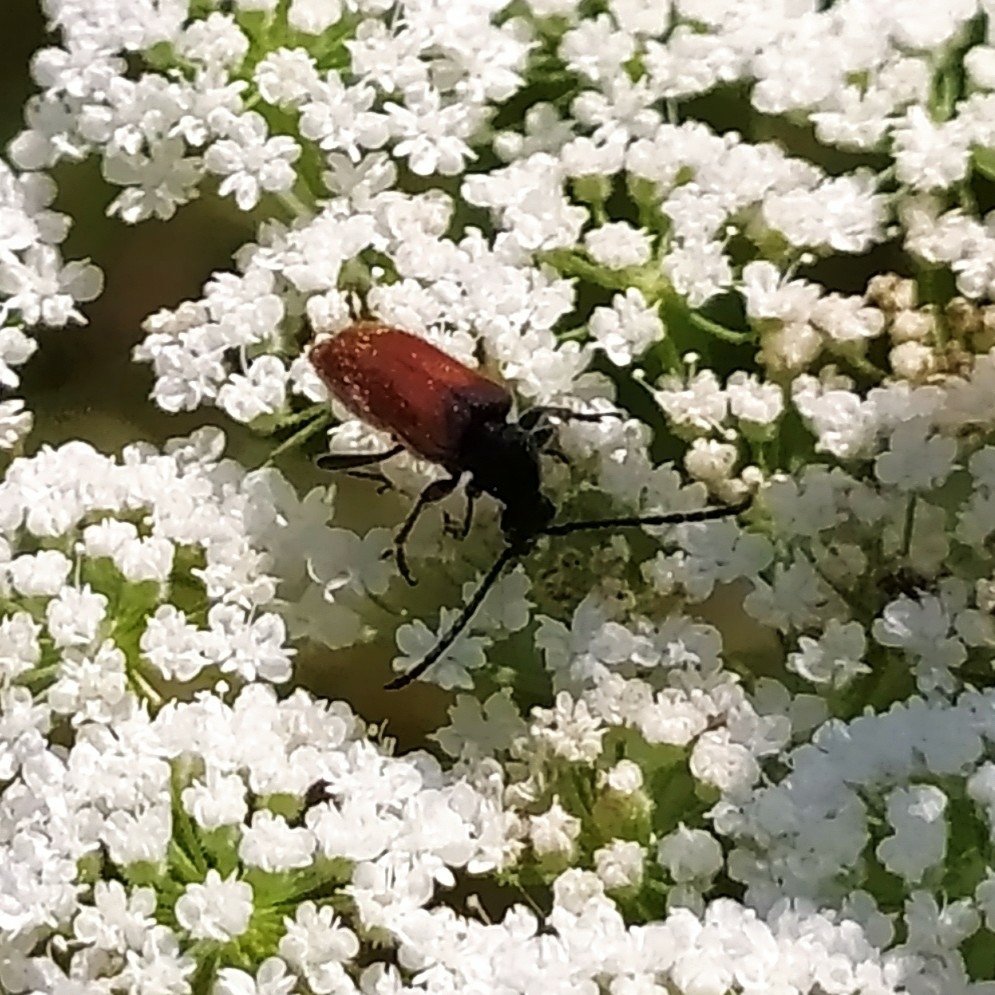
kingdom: Animalia
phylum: Arthropoda
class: Insecta
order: Coleoptera
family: Cerambycidae
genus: Pseudovadonia
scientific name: Pseudovadonia livida
